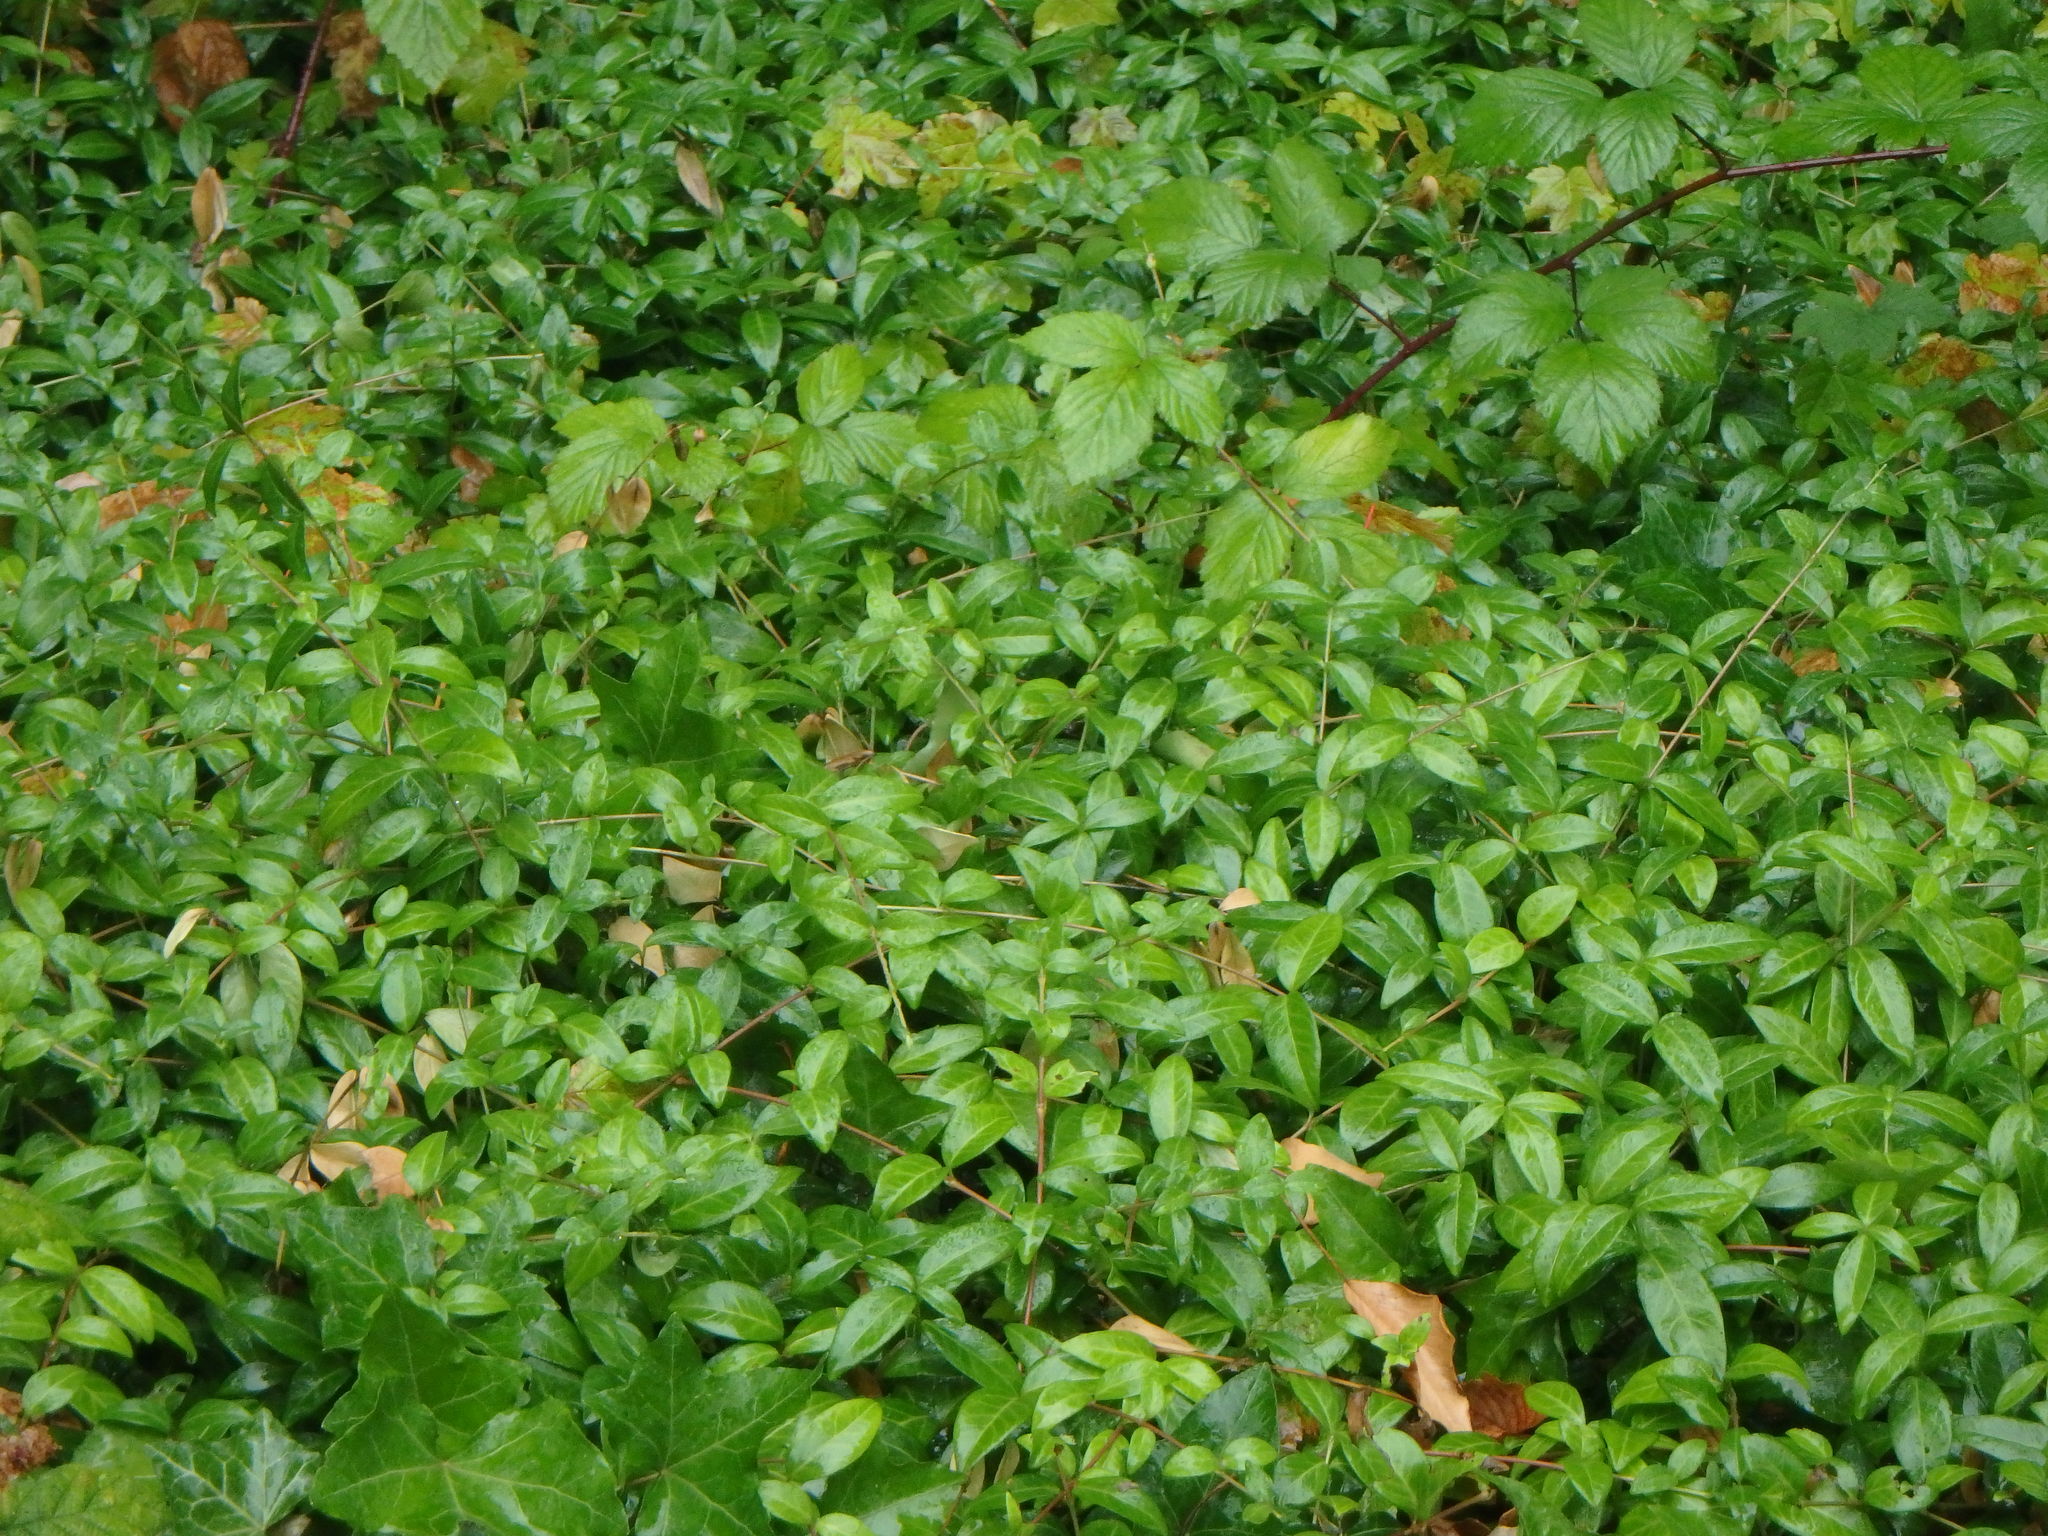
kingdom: Plantae
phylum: Tracheophyta
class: Magnoliopsida
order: Gentianales
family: Apocynaceae
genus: Vinca
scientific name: Vinca minor
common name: Lesser periwinkle
